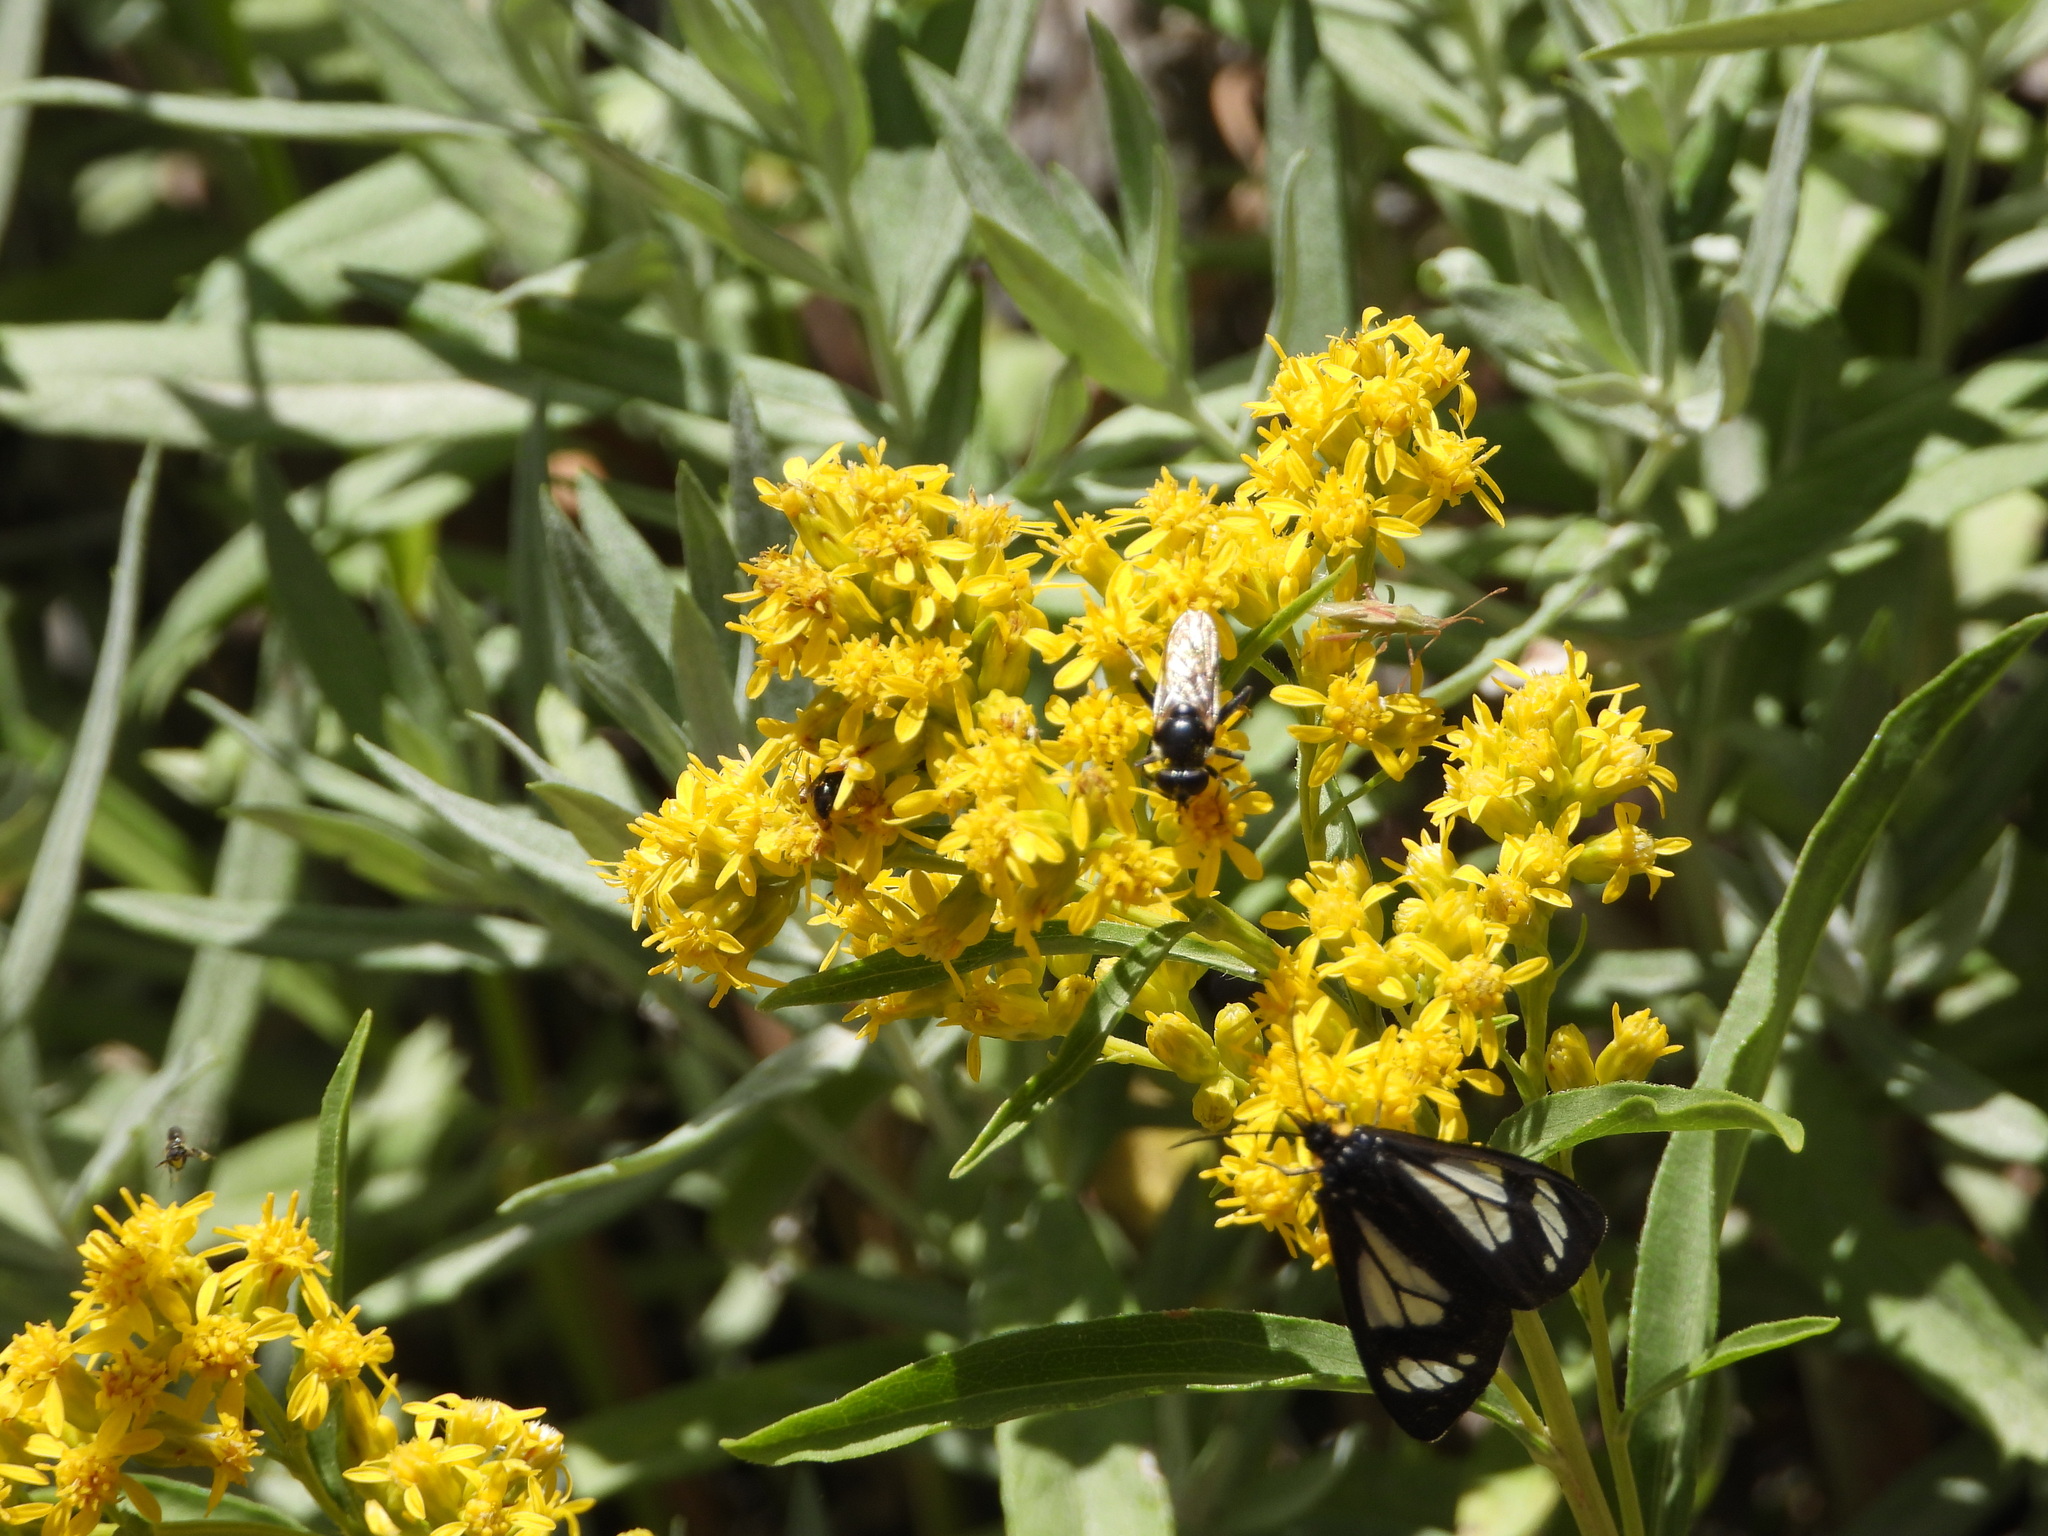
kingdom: Animalia
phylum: Arthropoda
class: Insecta
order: Lepidoptera
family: Erebidae
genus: Gnophaela
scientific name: Gnophaela vermiculata
